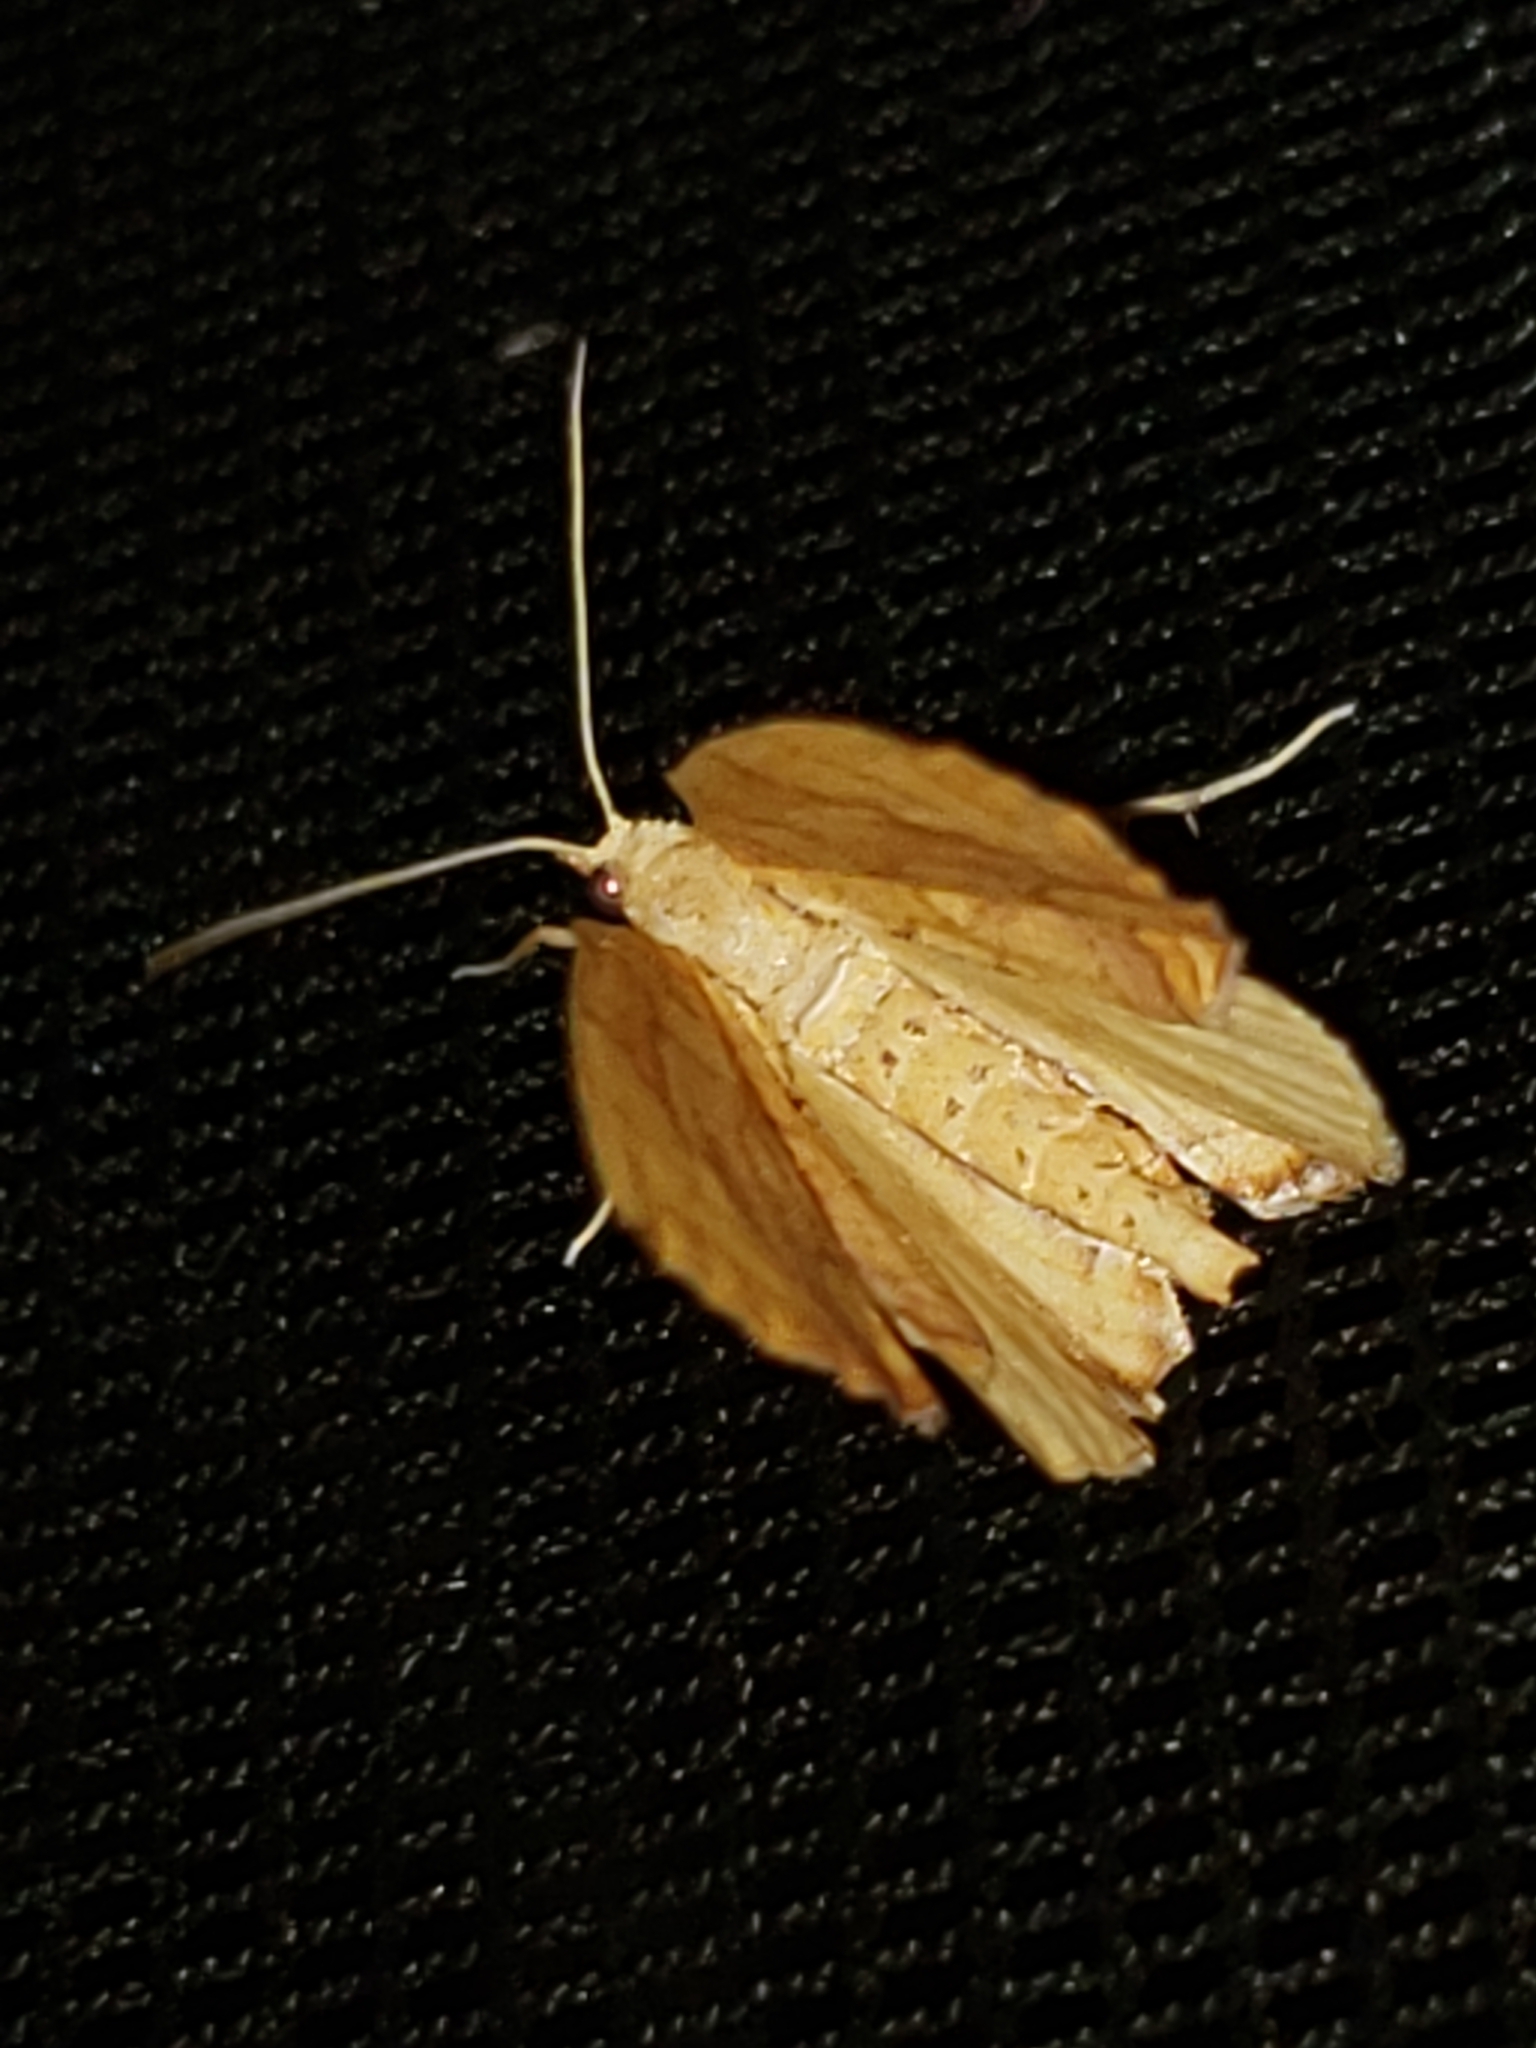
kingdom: Animalia
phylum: Arthropoda
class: Insecta
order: Lepidoptera
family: Geometridae
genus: Eulithis
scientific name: Eulithis
